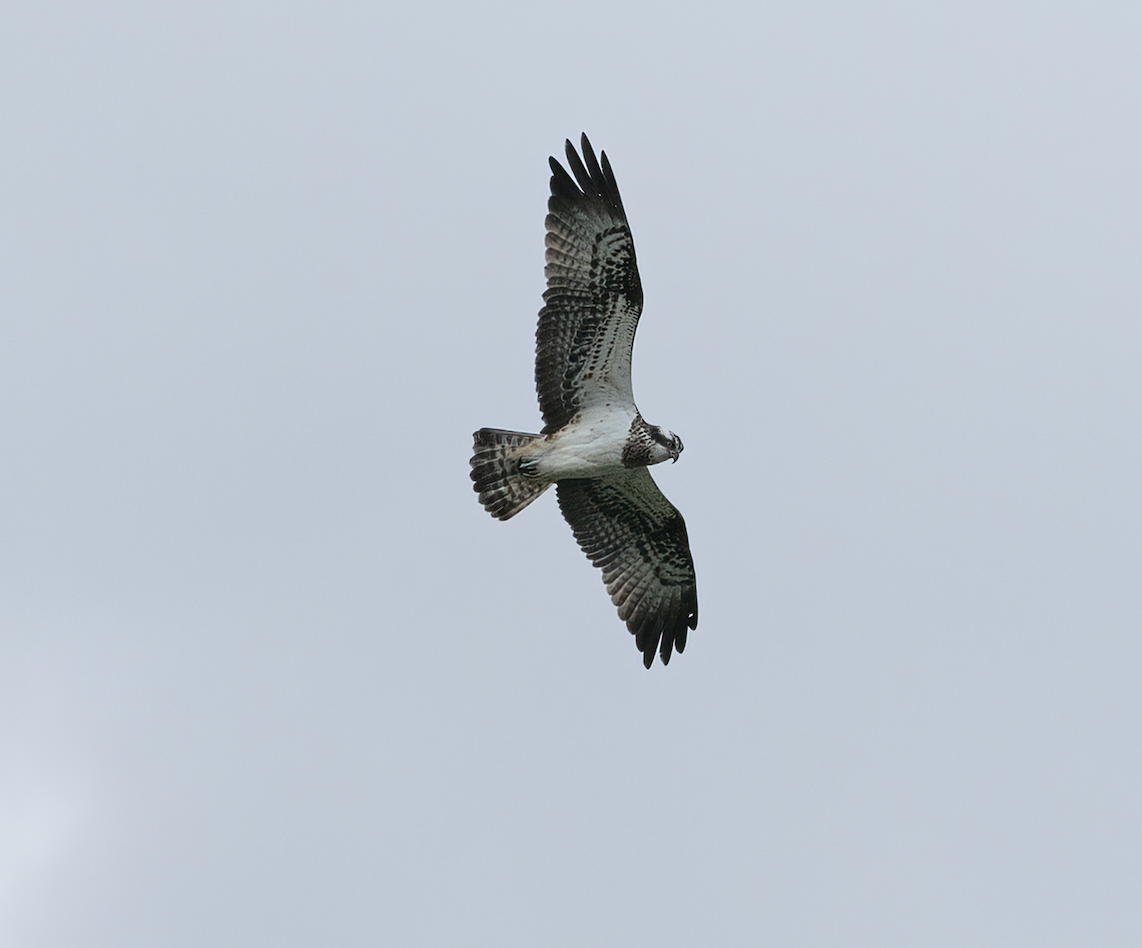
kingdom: Animalia
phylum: Chordata
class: Aves
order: Accipitriformes
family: Pandionidae
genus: Pandion
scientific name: Pandion haliaetus
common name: Osprey
